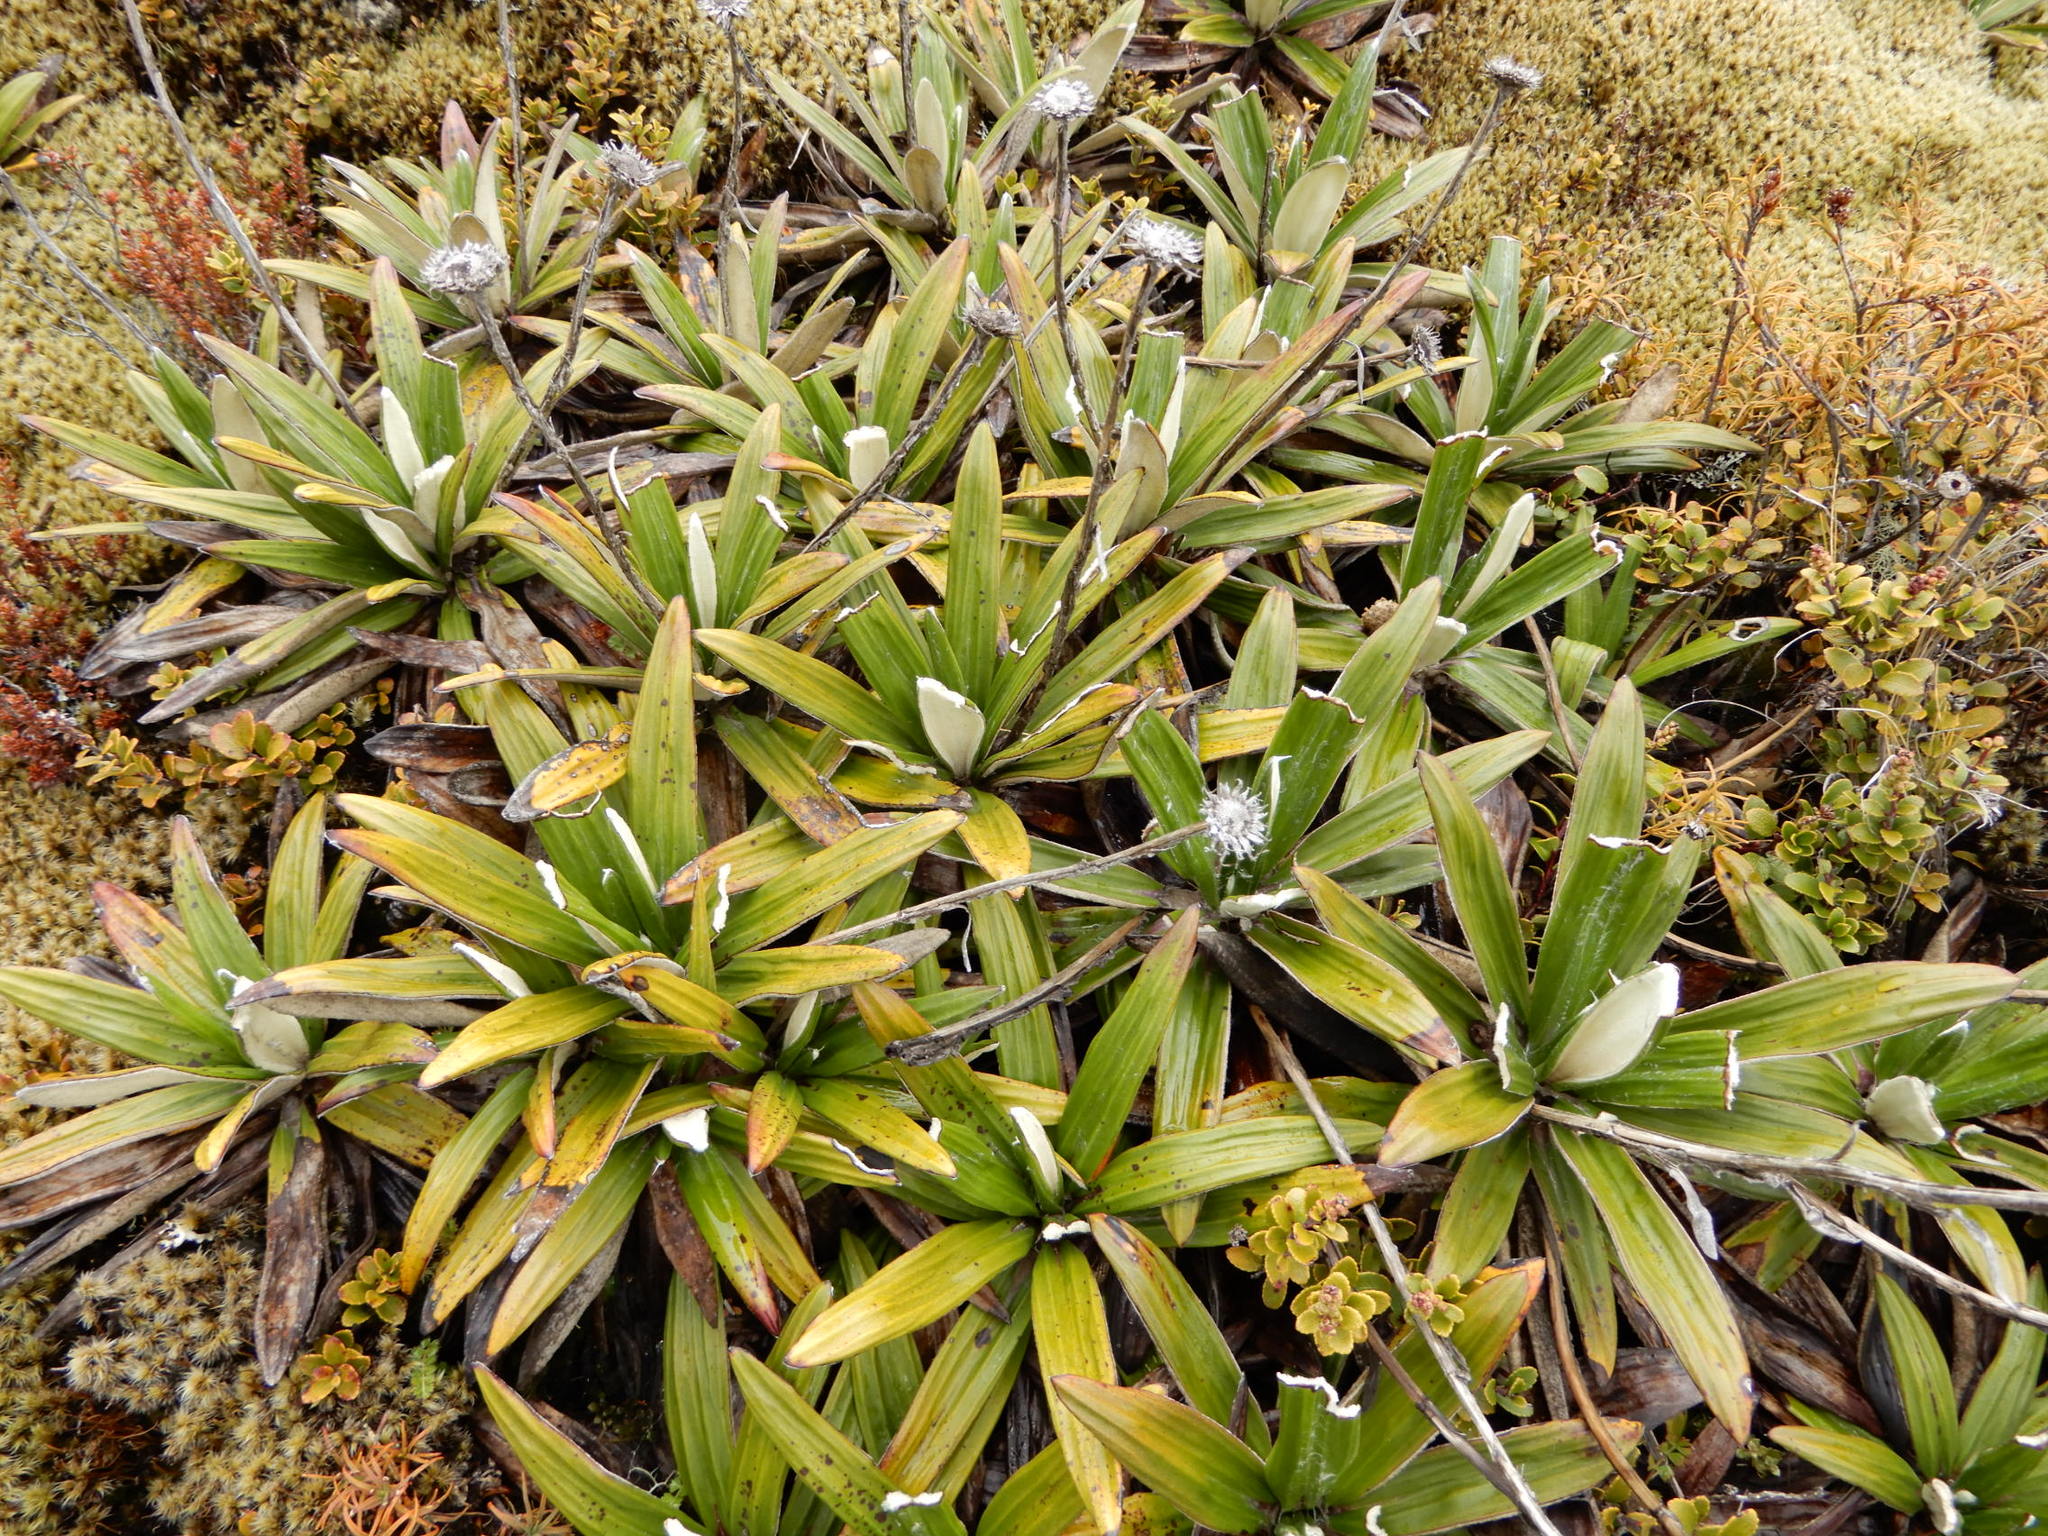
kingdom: Plantae
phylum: Tracheophyta
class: Magnoliopsida
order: Asterales
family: Asteraceae
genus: Celmisia
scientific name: Celmisia spectabilis
